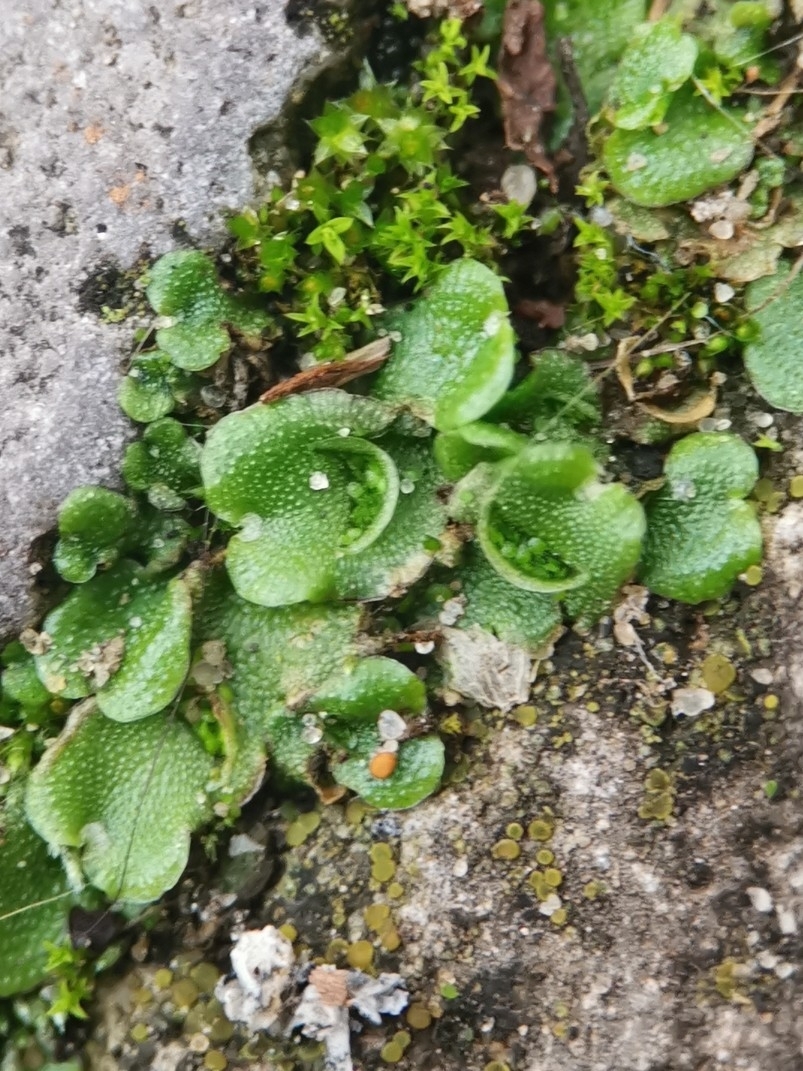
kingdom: Plantae
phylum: Marchantiophyta
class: Marchantiopsida
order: Lunulariales
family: Lunulariaceae
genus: Lunularia
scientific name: Lunularia cruciata
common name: Crescent-cup liverwort
